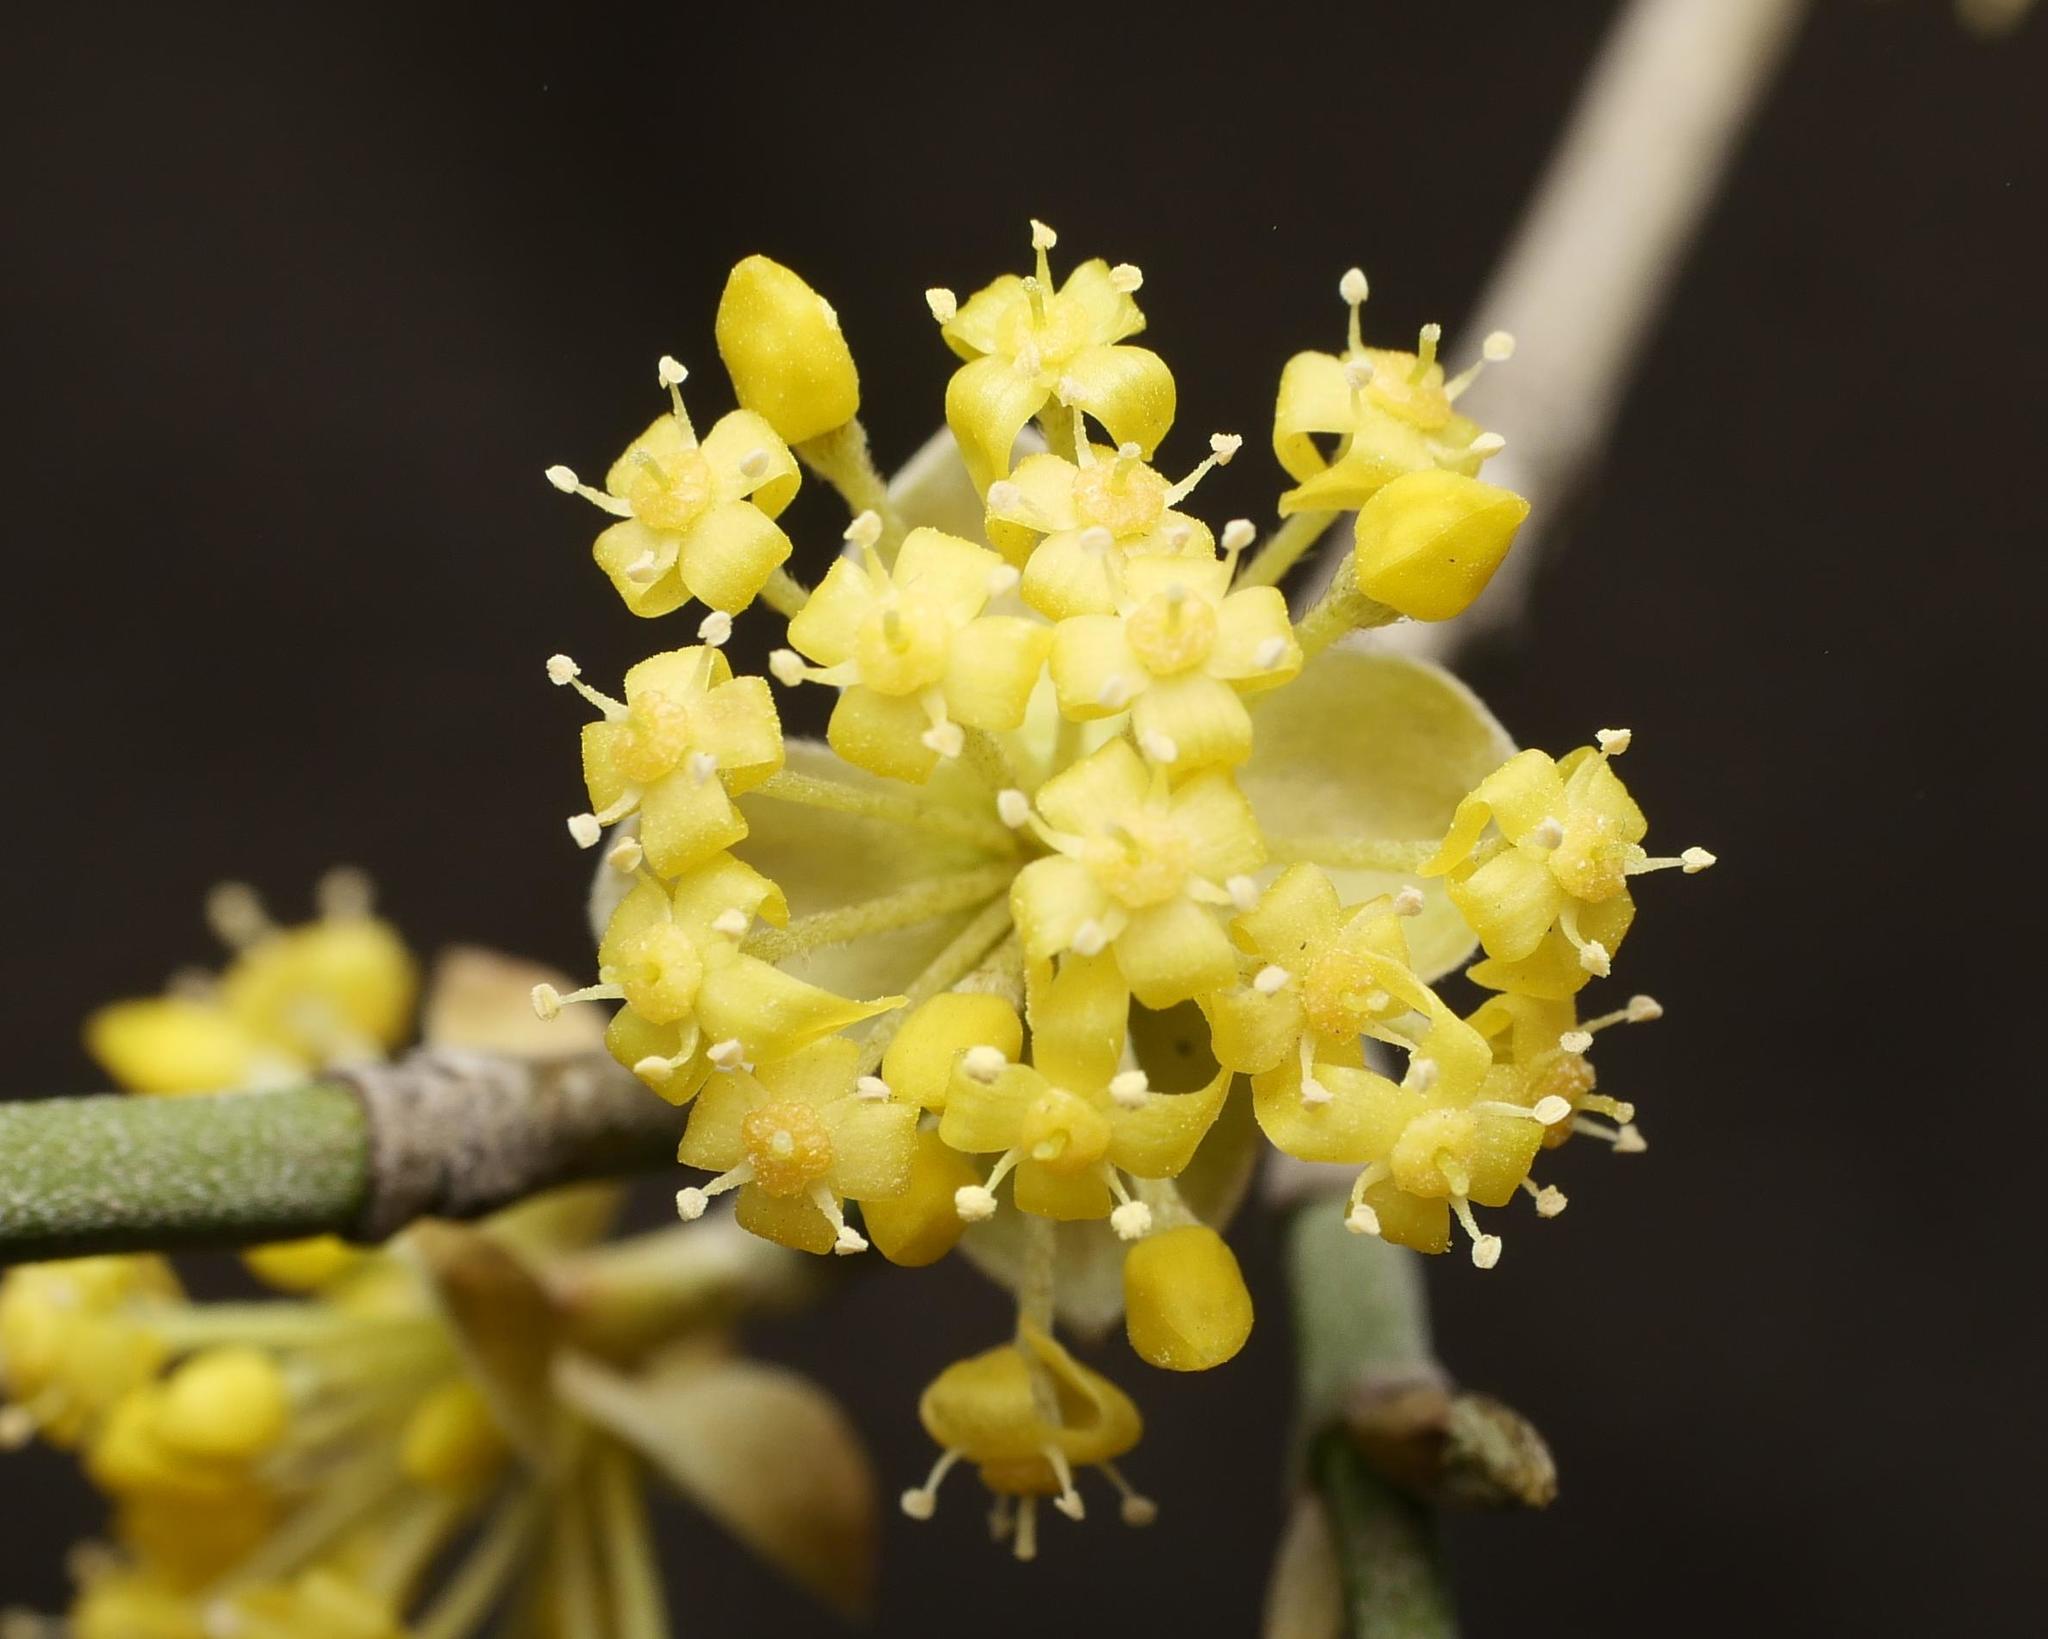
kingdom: Plantae
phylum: Tracheophyta
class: Magnoliopsida
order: Cornales
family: Cornaceae
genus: Cornus
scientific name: Cornus mas
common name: Cornelian-cherry
